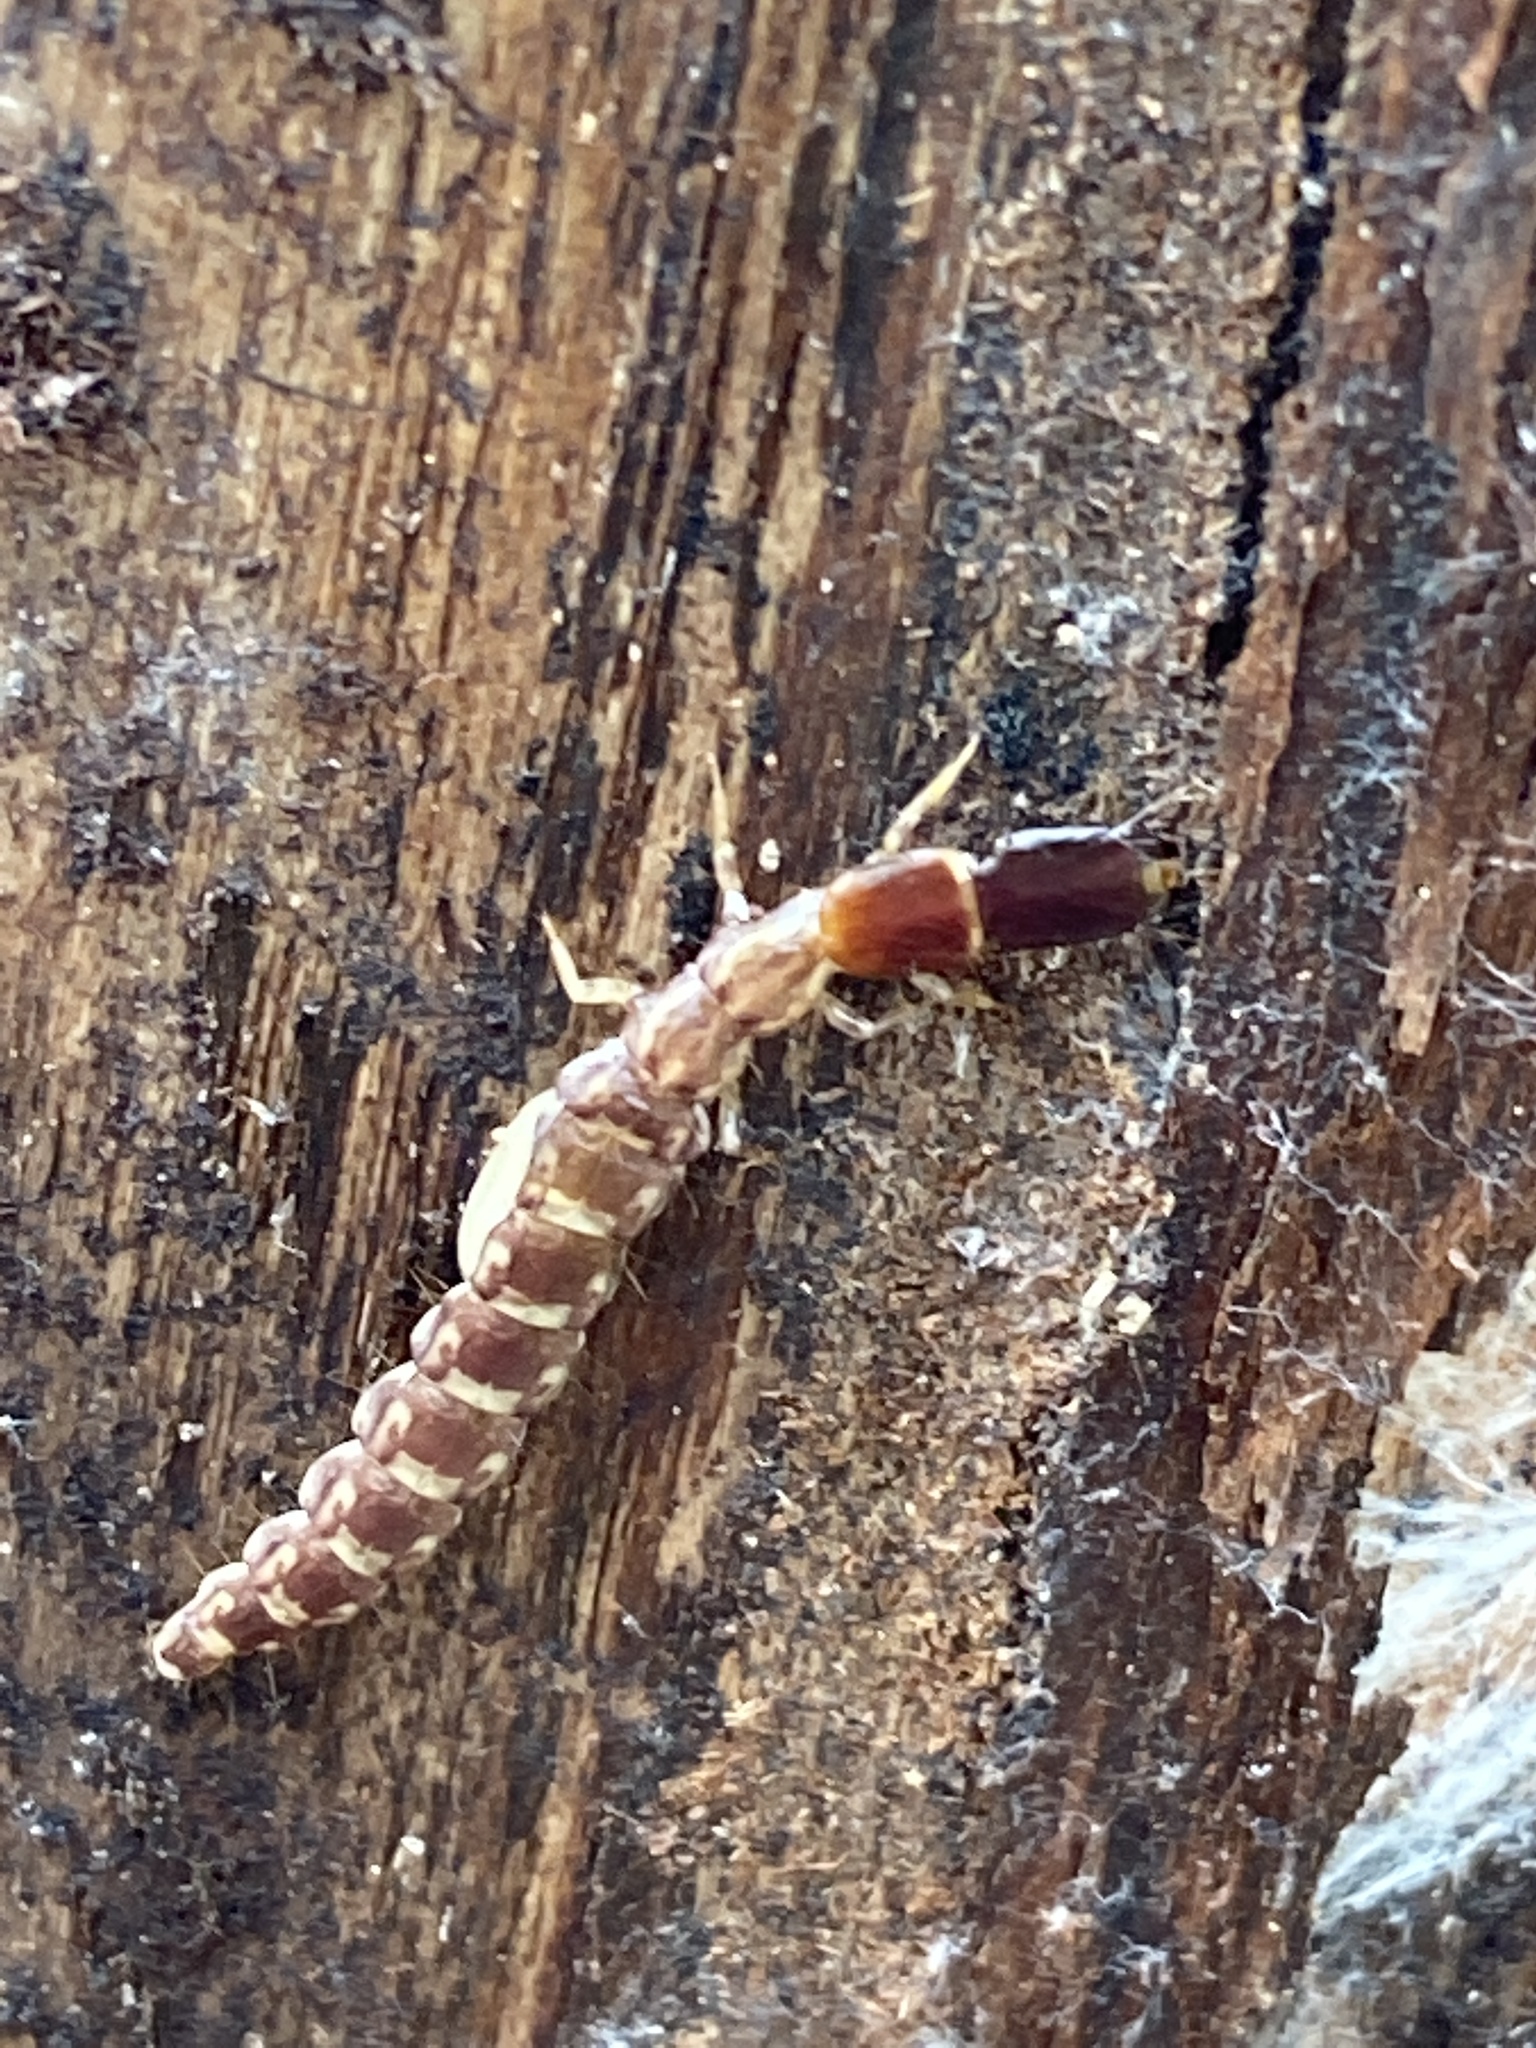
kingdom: Animalia
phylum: Arthropoda
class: Insecta
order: Raphidioptera
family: Inocelliidae
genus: Inocellia
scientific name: Inocellia crassicornis
